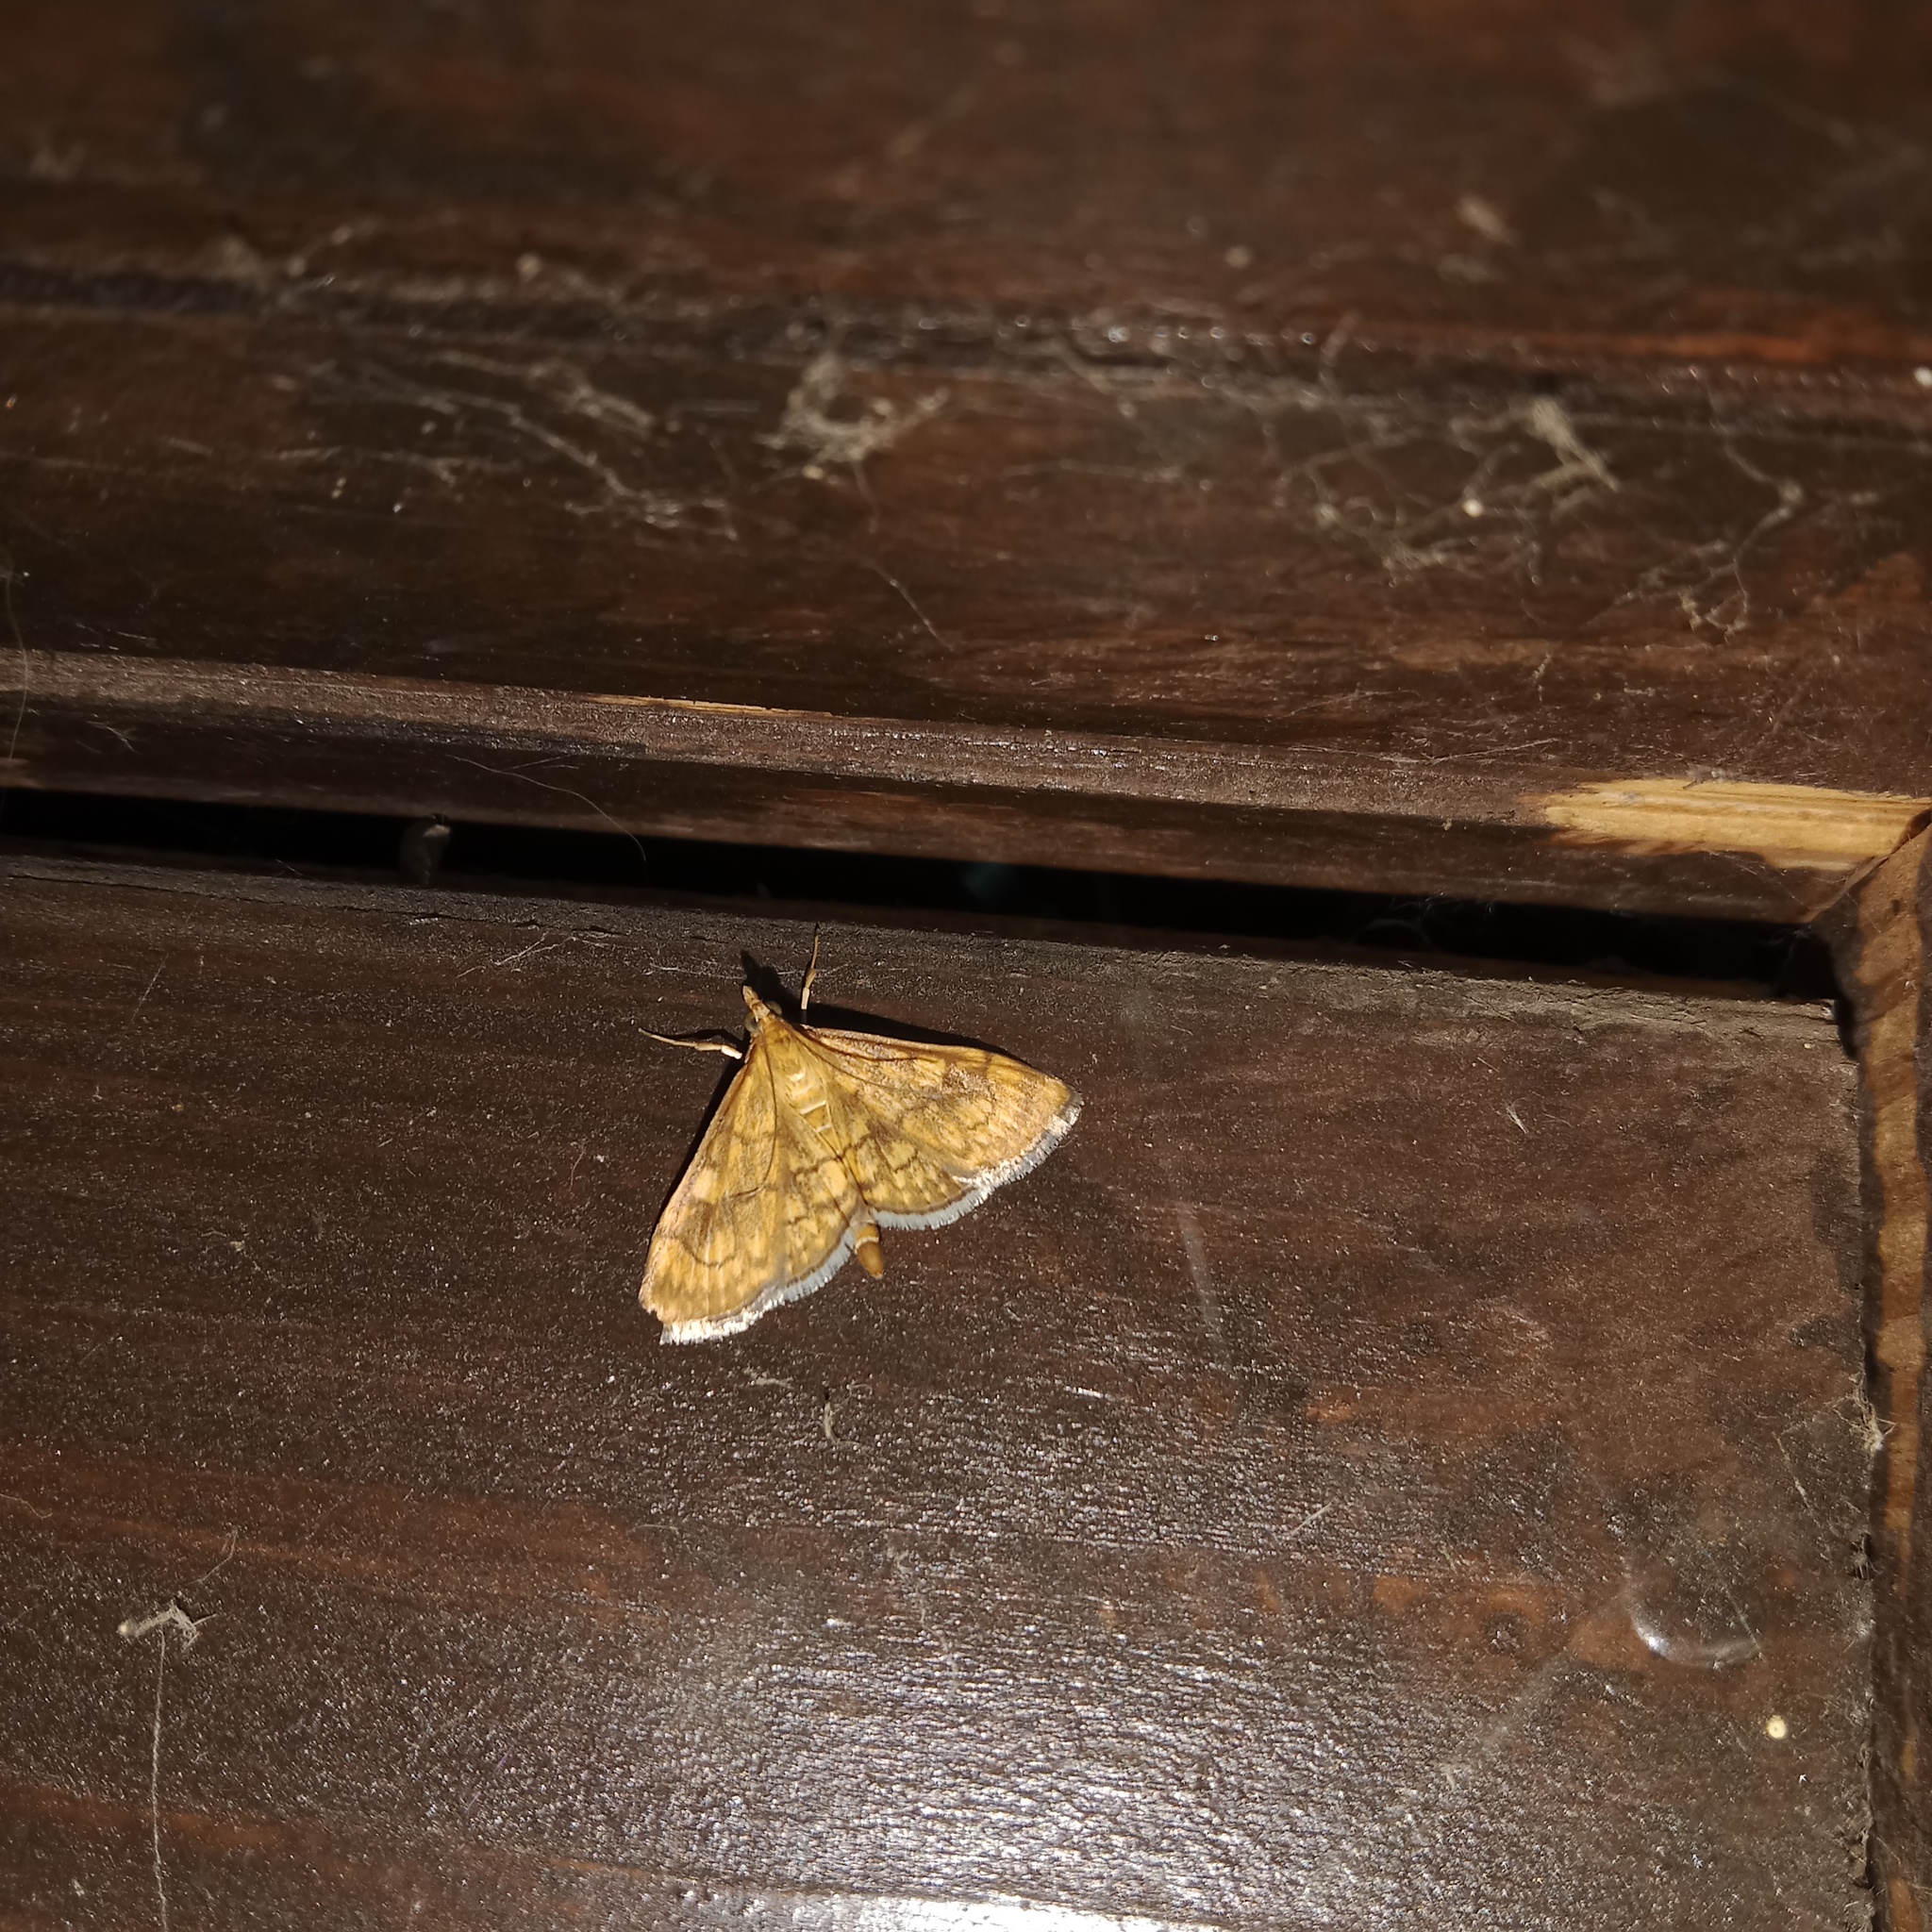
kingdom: Animalia
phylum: Arthropoda
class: Insecta
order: Lepidoptera
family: Crambidae
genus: Anania
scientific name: Anania verbascalis
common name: Golden pearl
